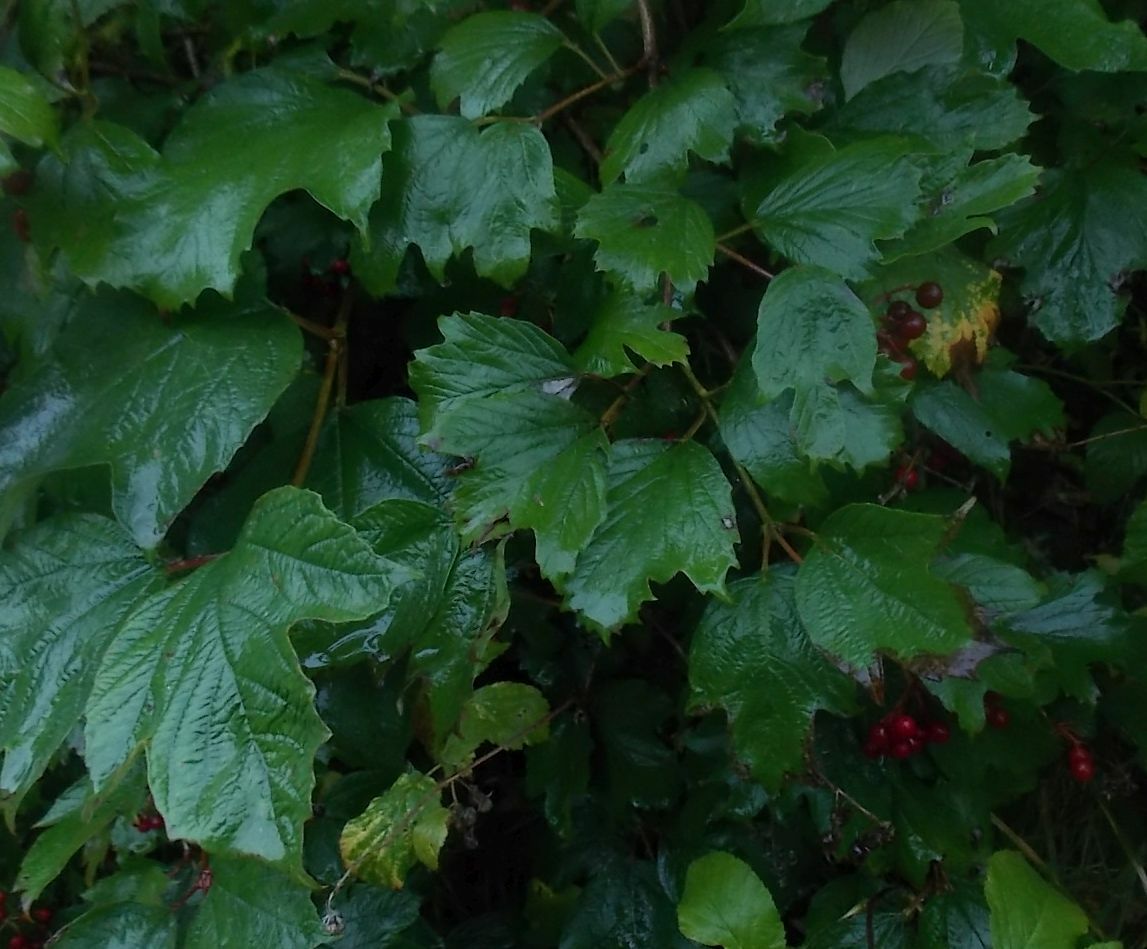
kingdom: Plantae
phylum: Tracheophyta
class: Magnoliopsida
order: Dipsacales
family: Viburnaceae
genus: Viburnum
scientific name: Viburnum opulus
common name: Guelder-rose
